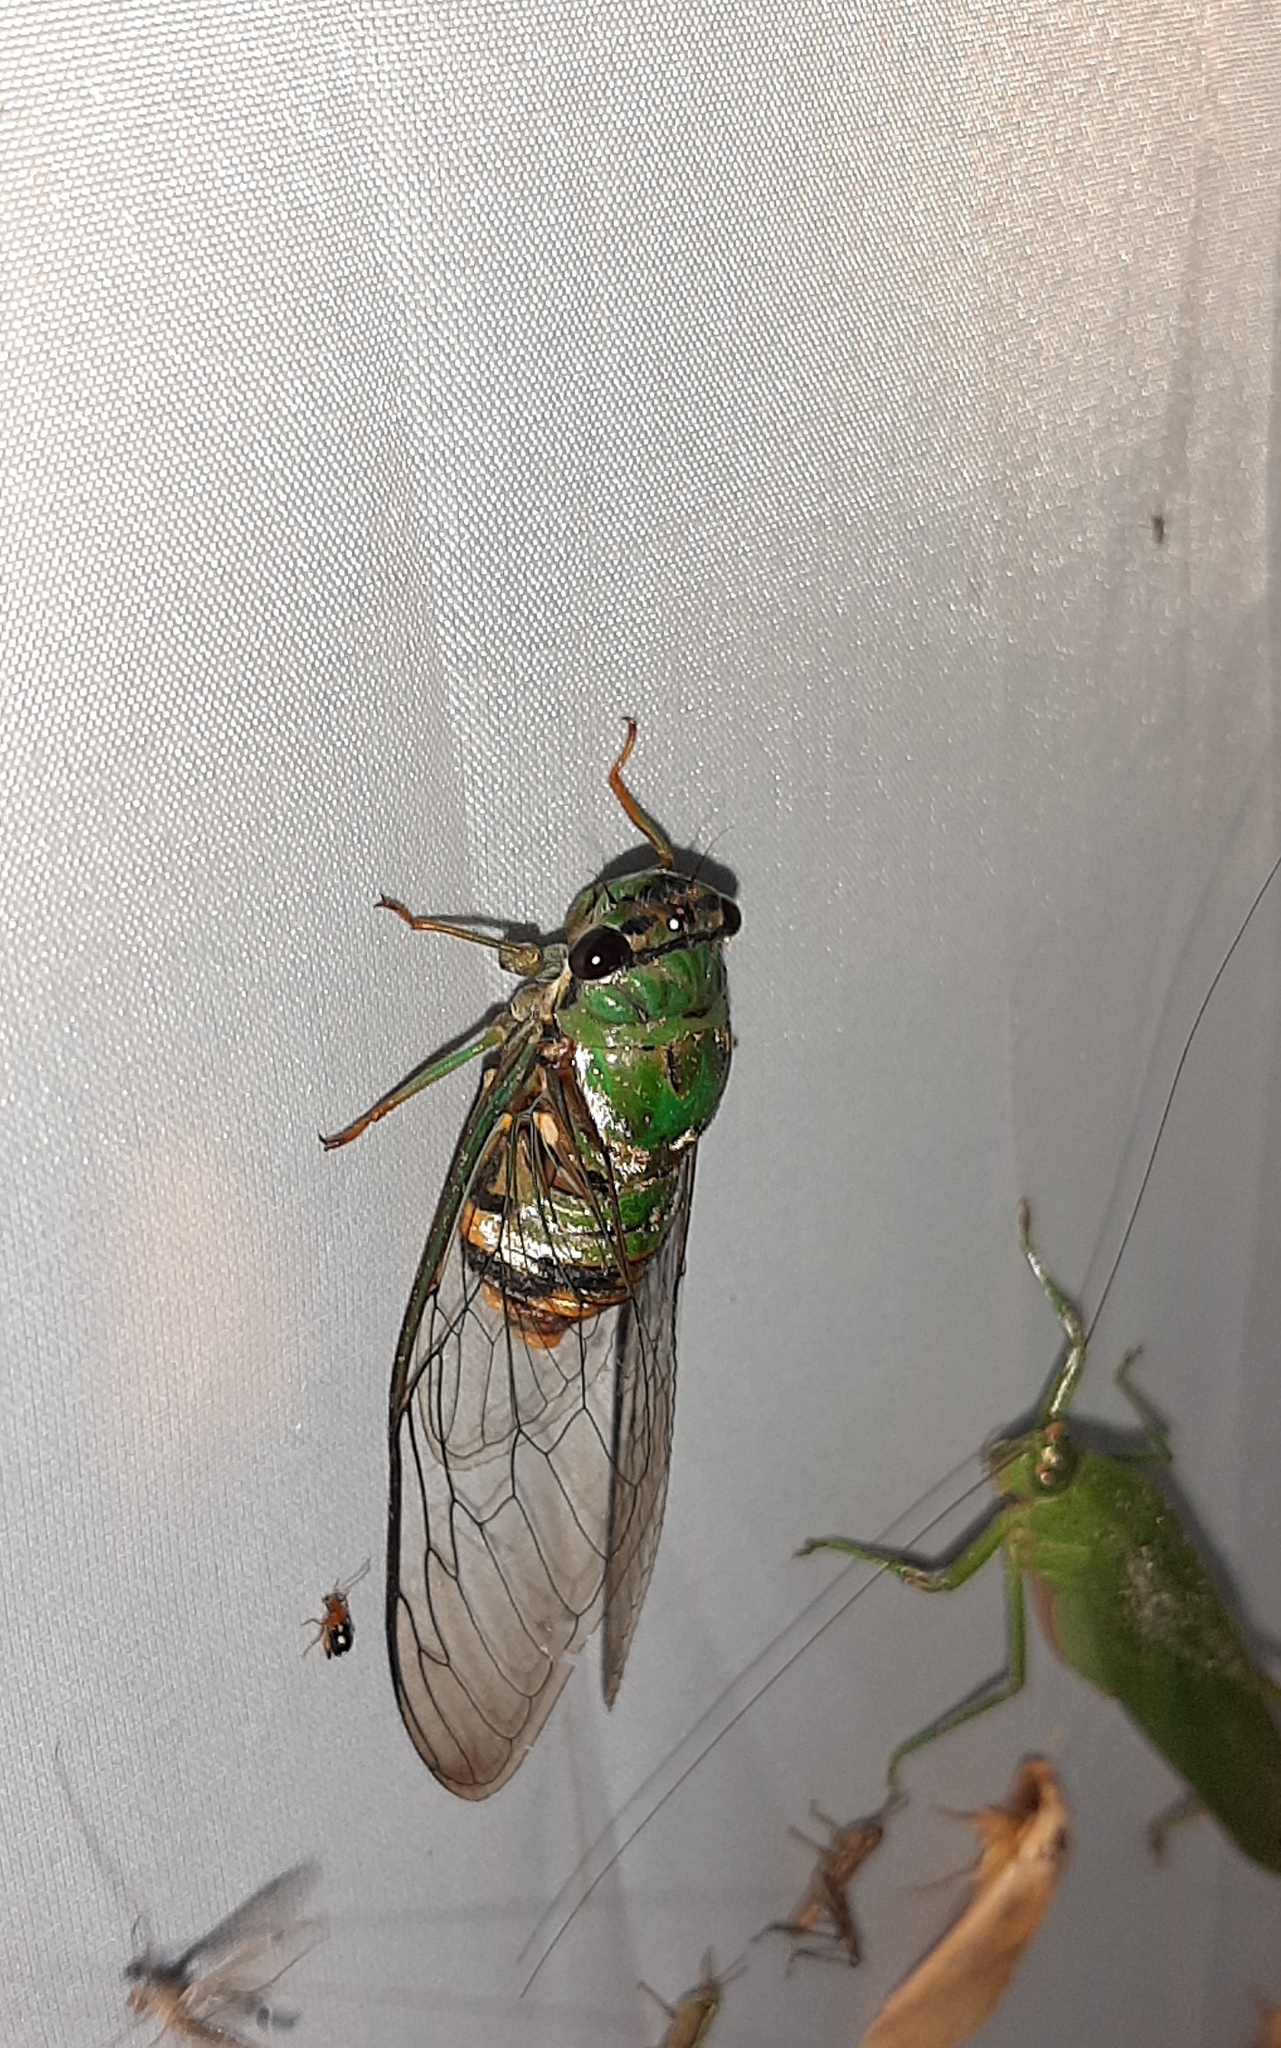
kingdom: Animalia
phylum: Arthropoda
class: Insecta
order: Hemiptera
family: Cicadidae
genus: Guyalna
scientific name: Guyalna distanti
